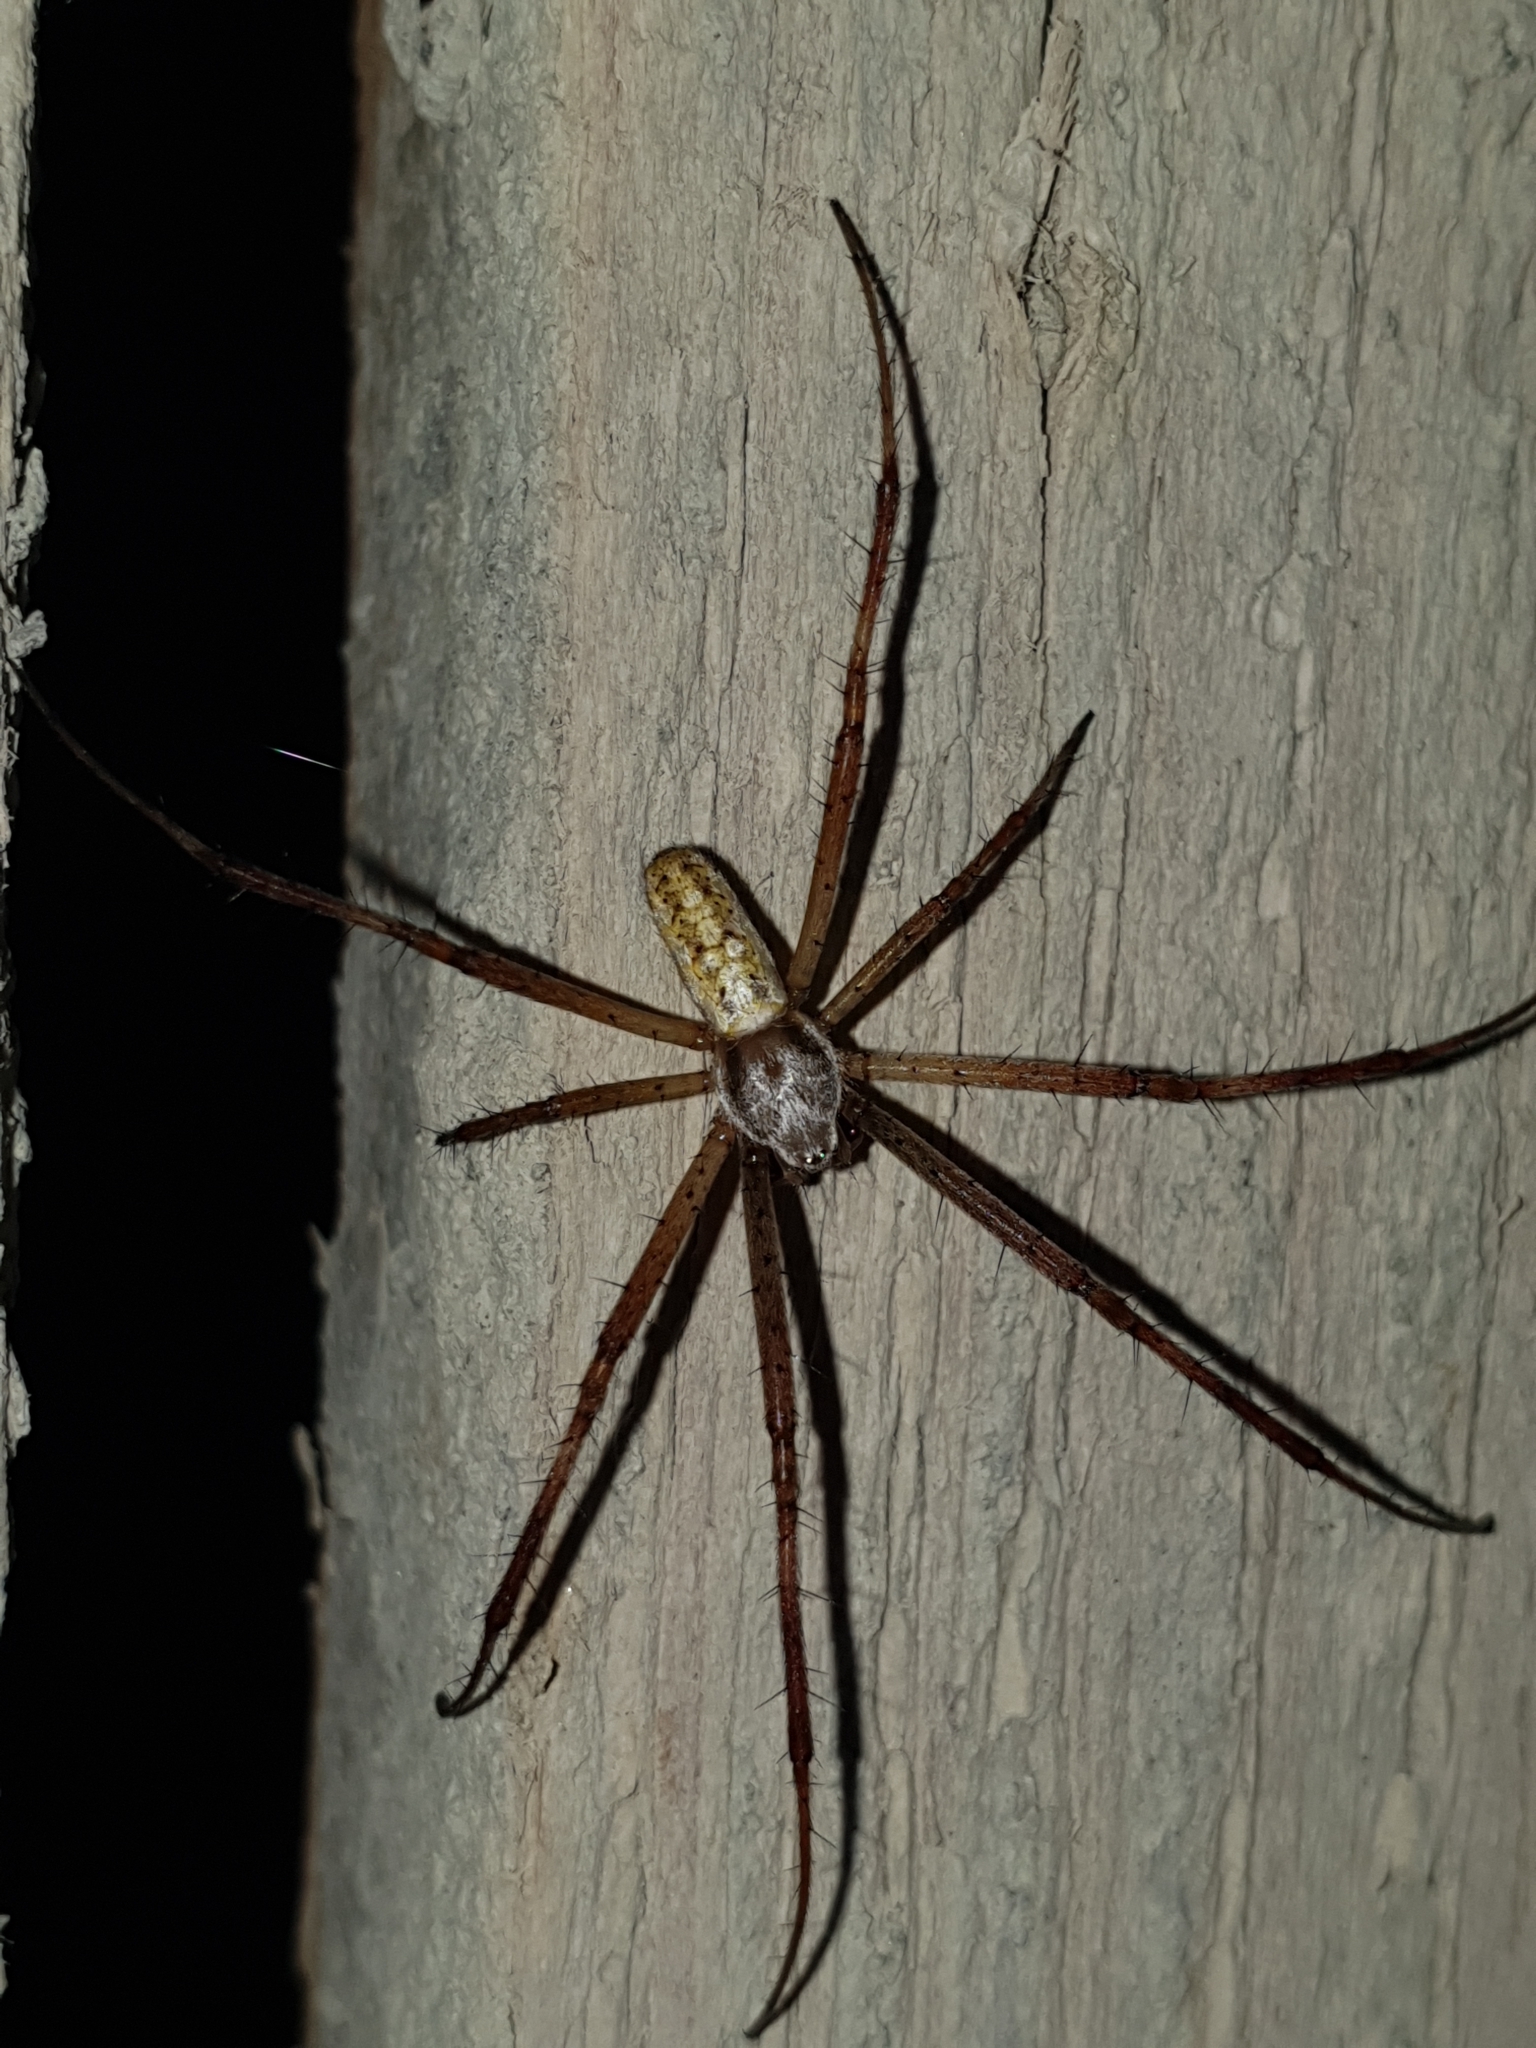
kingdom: Animalia
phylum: Arthropoda
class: Arachnida
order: Araneae
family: Araneidae
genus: Argiope
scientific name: Argiope bruennichi
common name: Wasp spider
